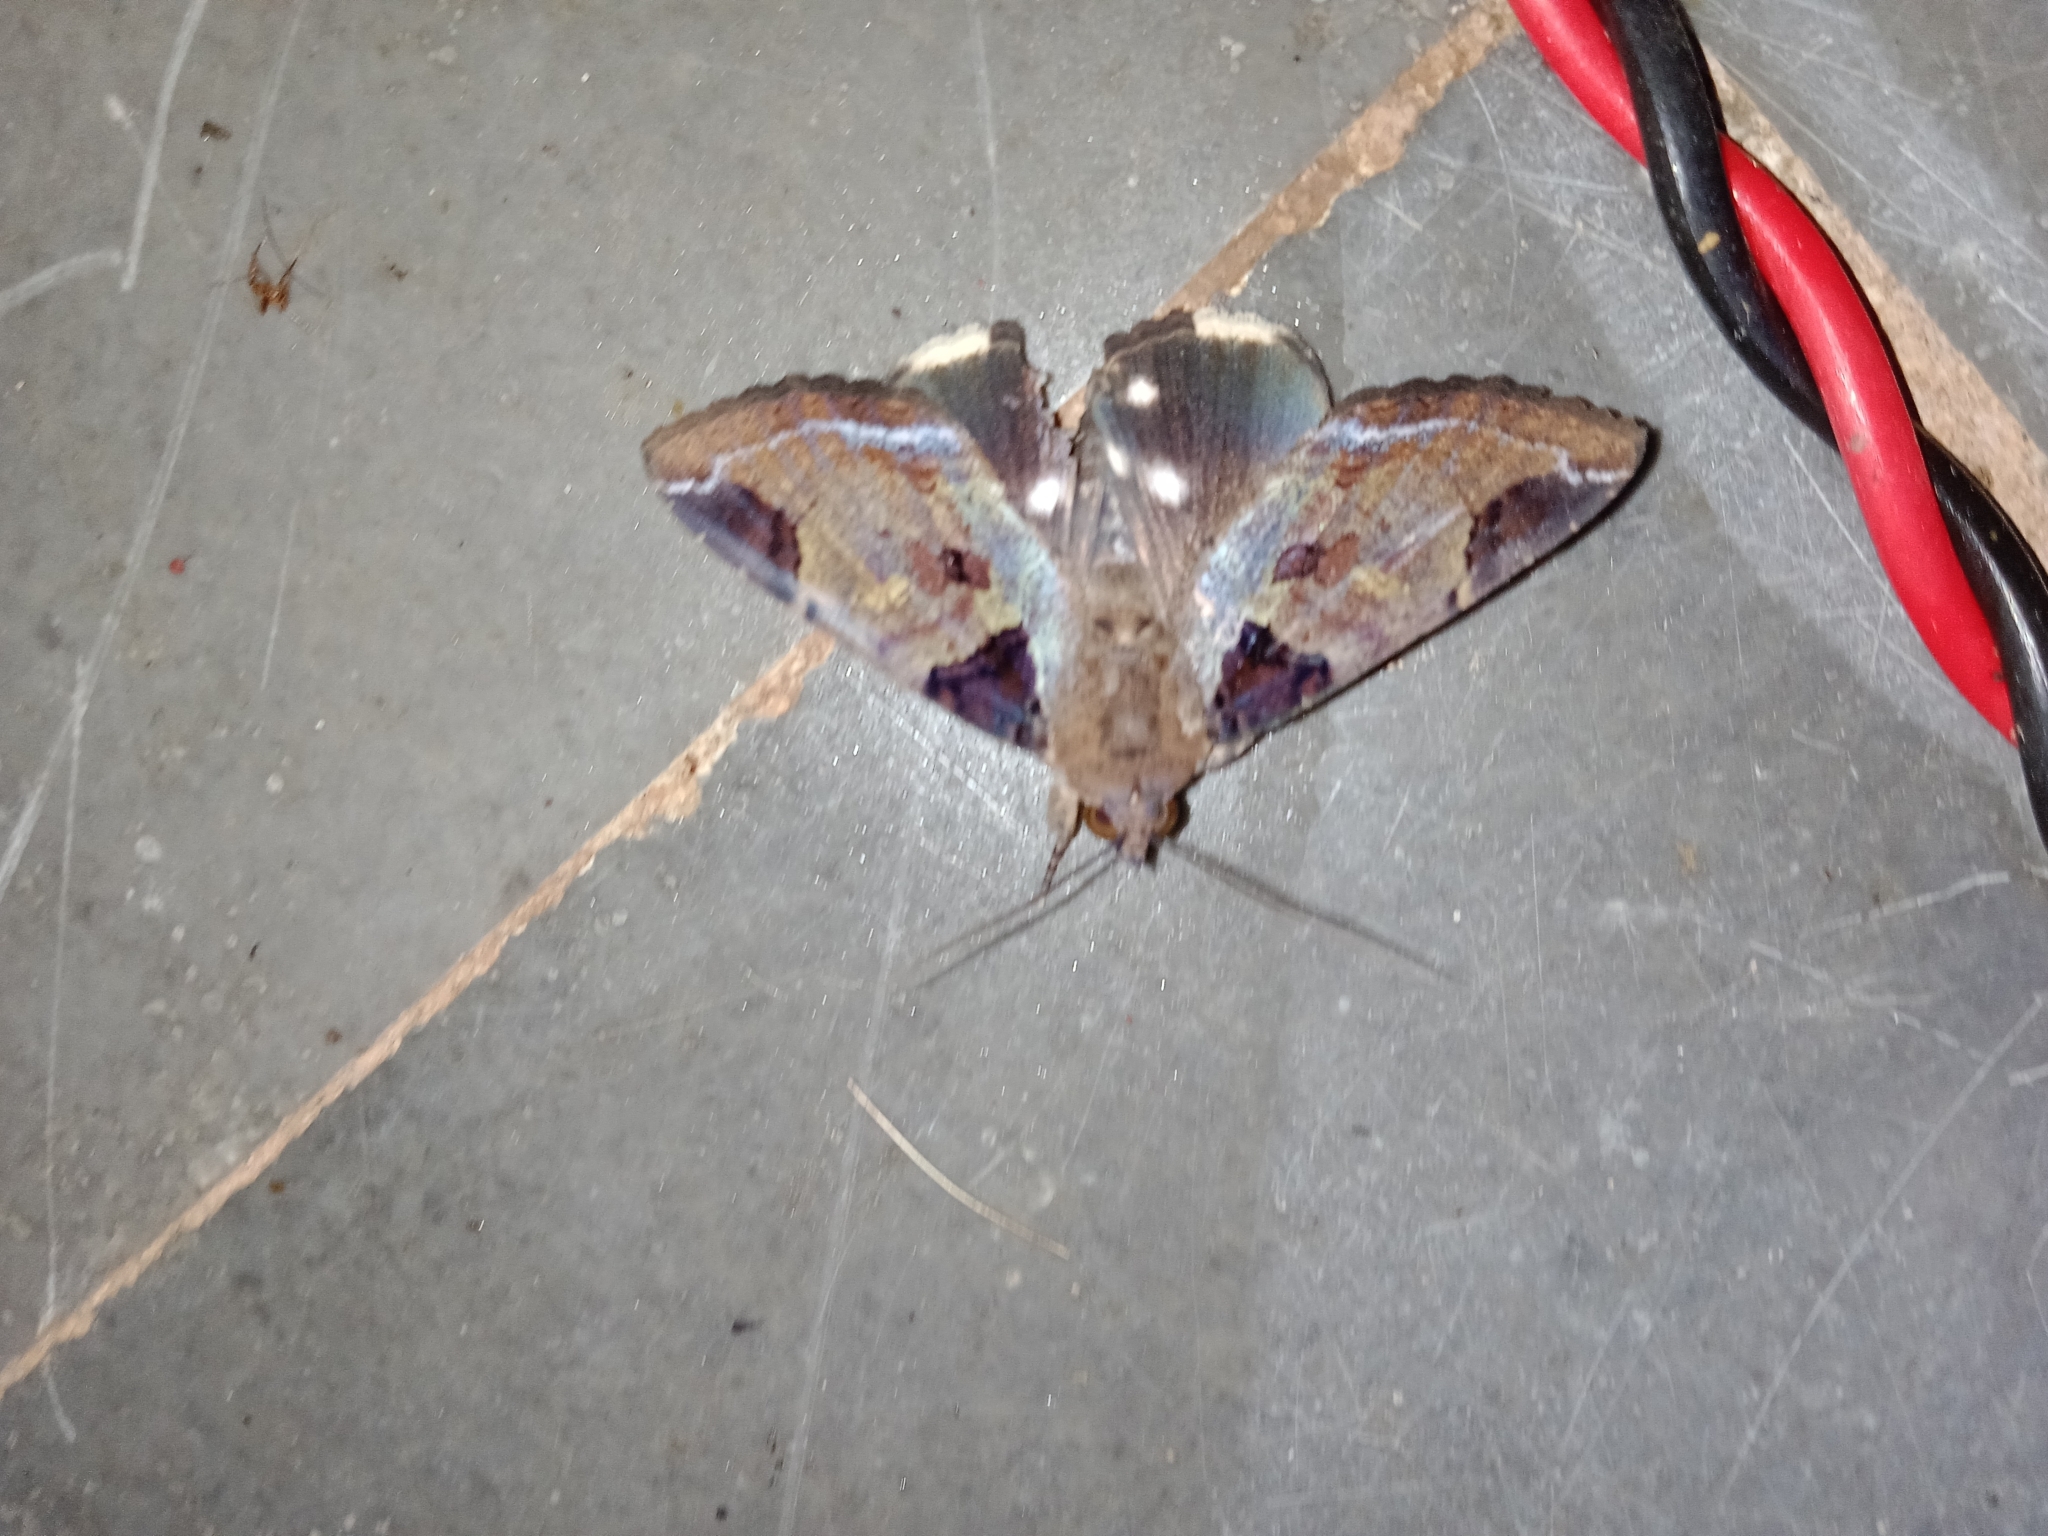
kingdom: Animalia
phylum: Arthropoda
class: Insecta
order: Lepidoptera
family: Erebidae
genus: Ercheia
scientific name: Ercheia cyllaria
